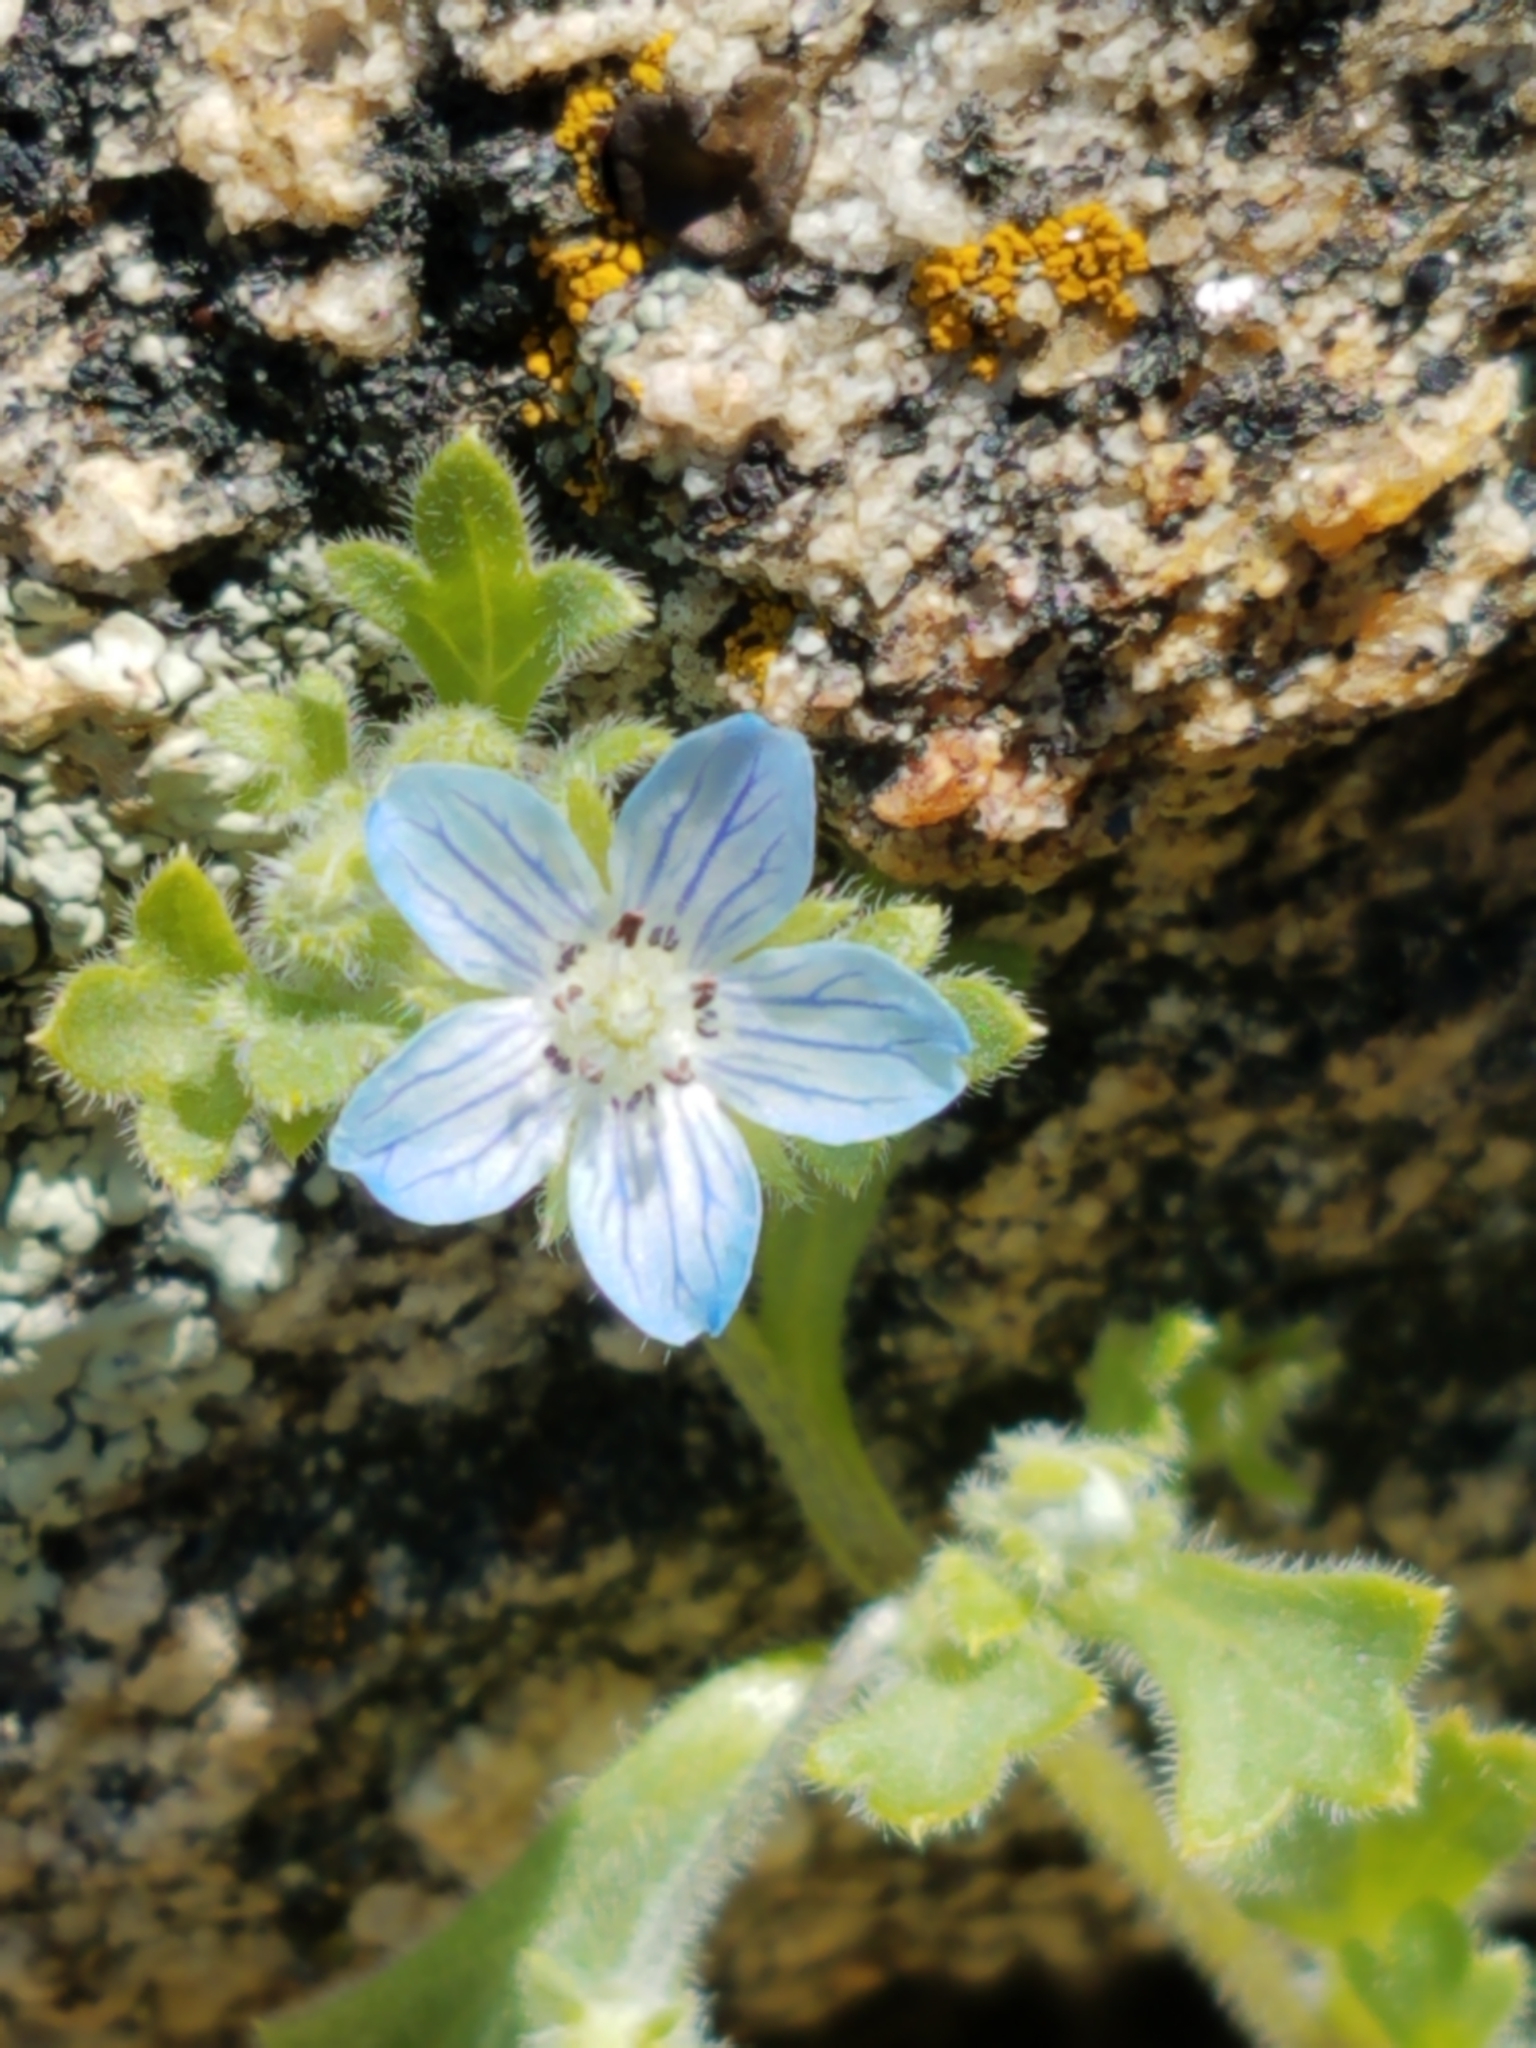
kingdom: Plantae
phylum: Tracheophyta
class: Magnoliopsida
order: Boraginales
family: Hydrophyllaceae
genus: Nemophila
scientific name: Nemophila menziesii
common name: Baby's-blue-eyes
